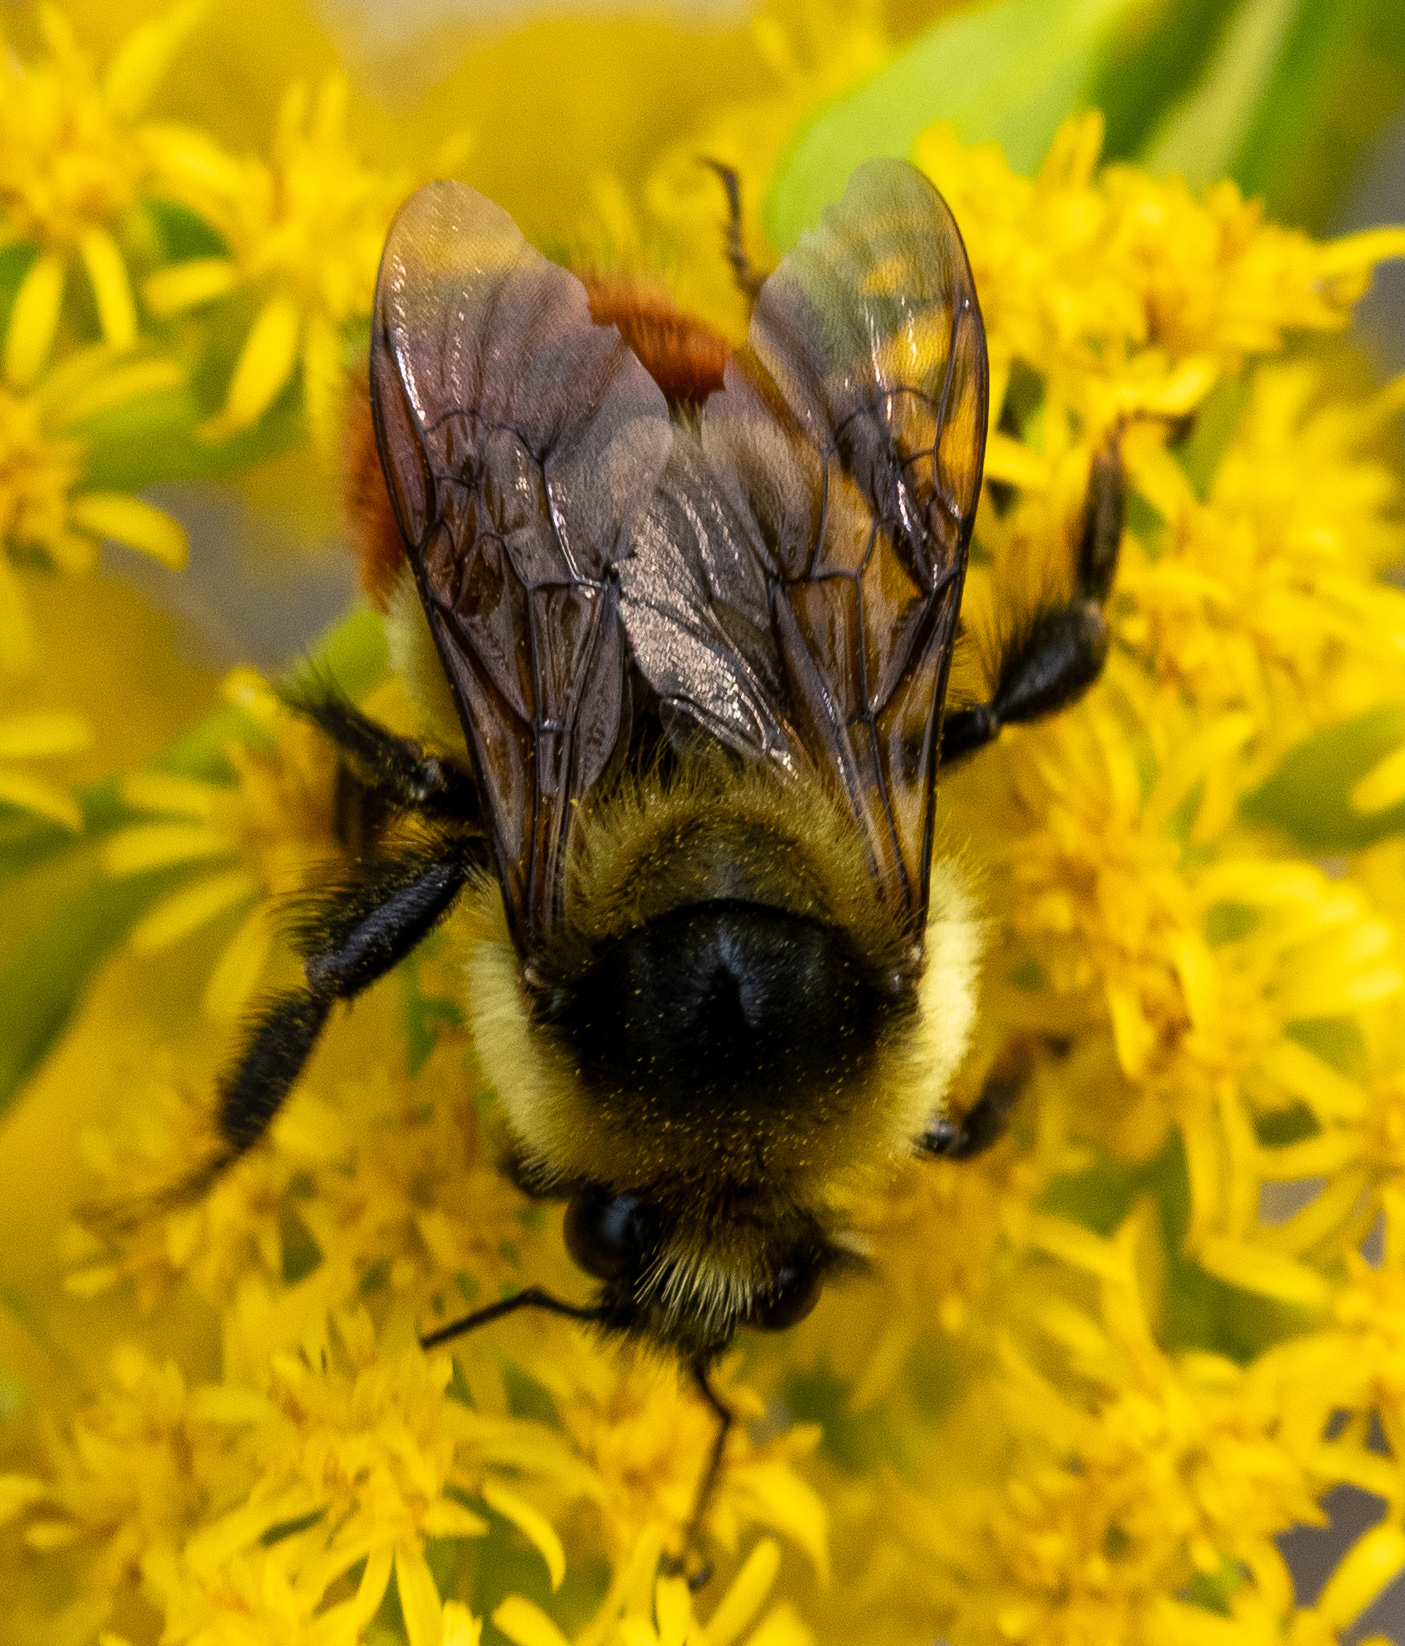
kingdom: Animalia
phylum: Arthropoda
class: Insecta
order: Hymenoptera
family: Apidae
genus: Bombus
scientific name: Bombus rufocinctus
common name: Red-belted bumble bee
